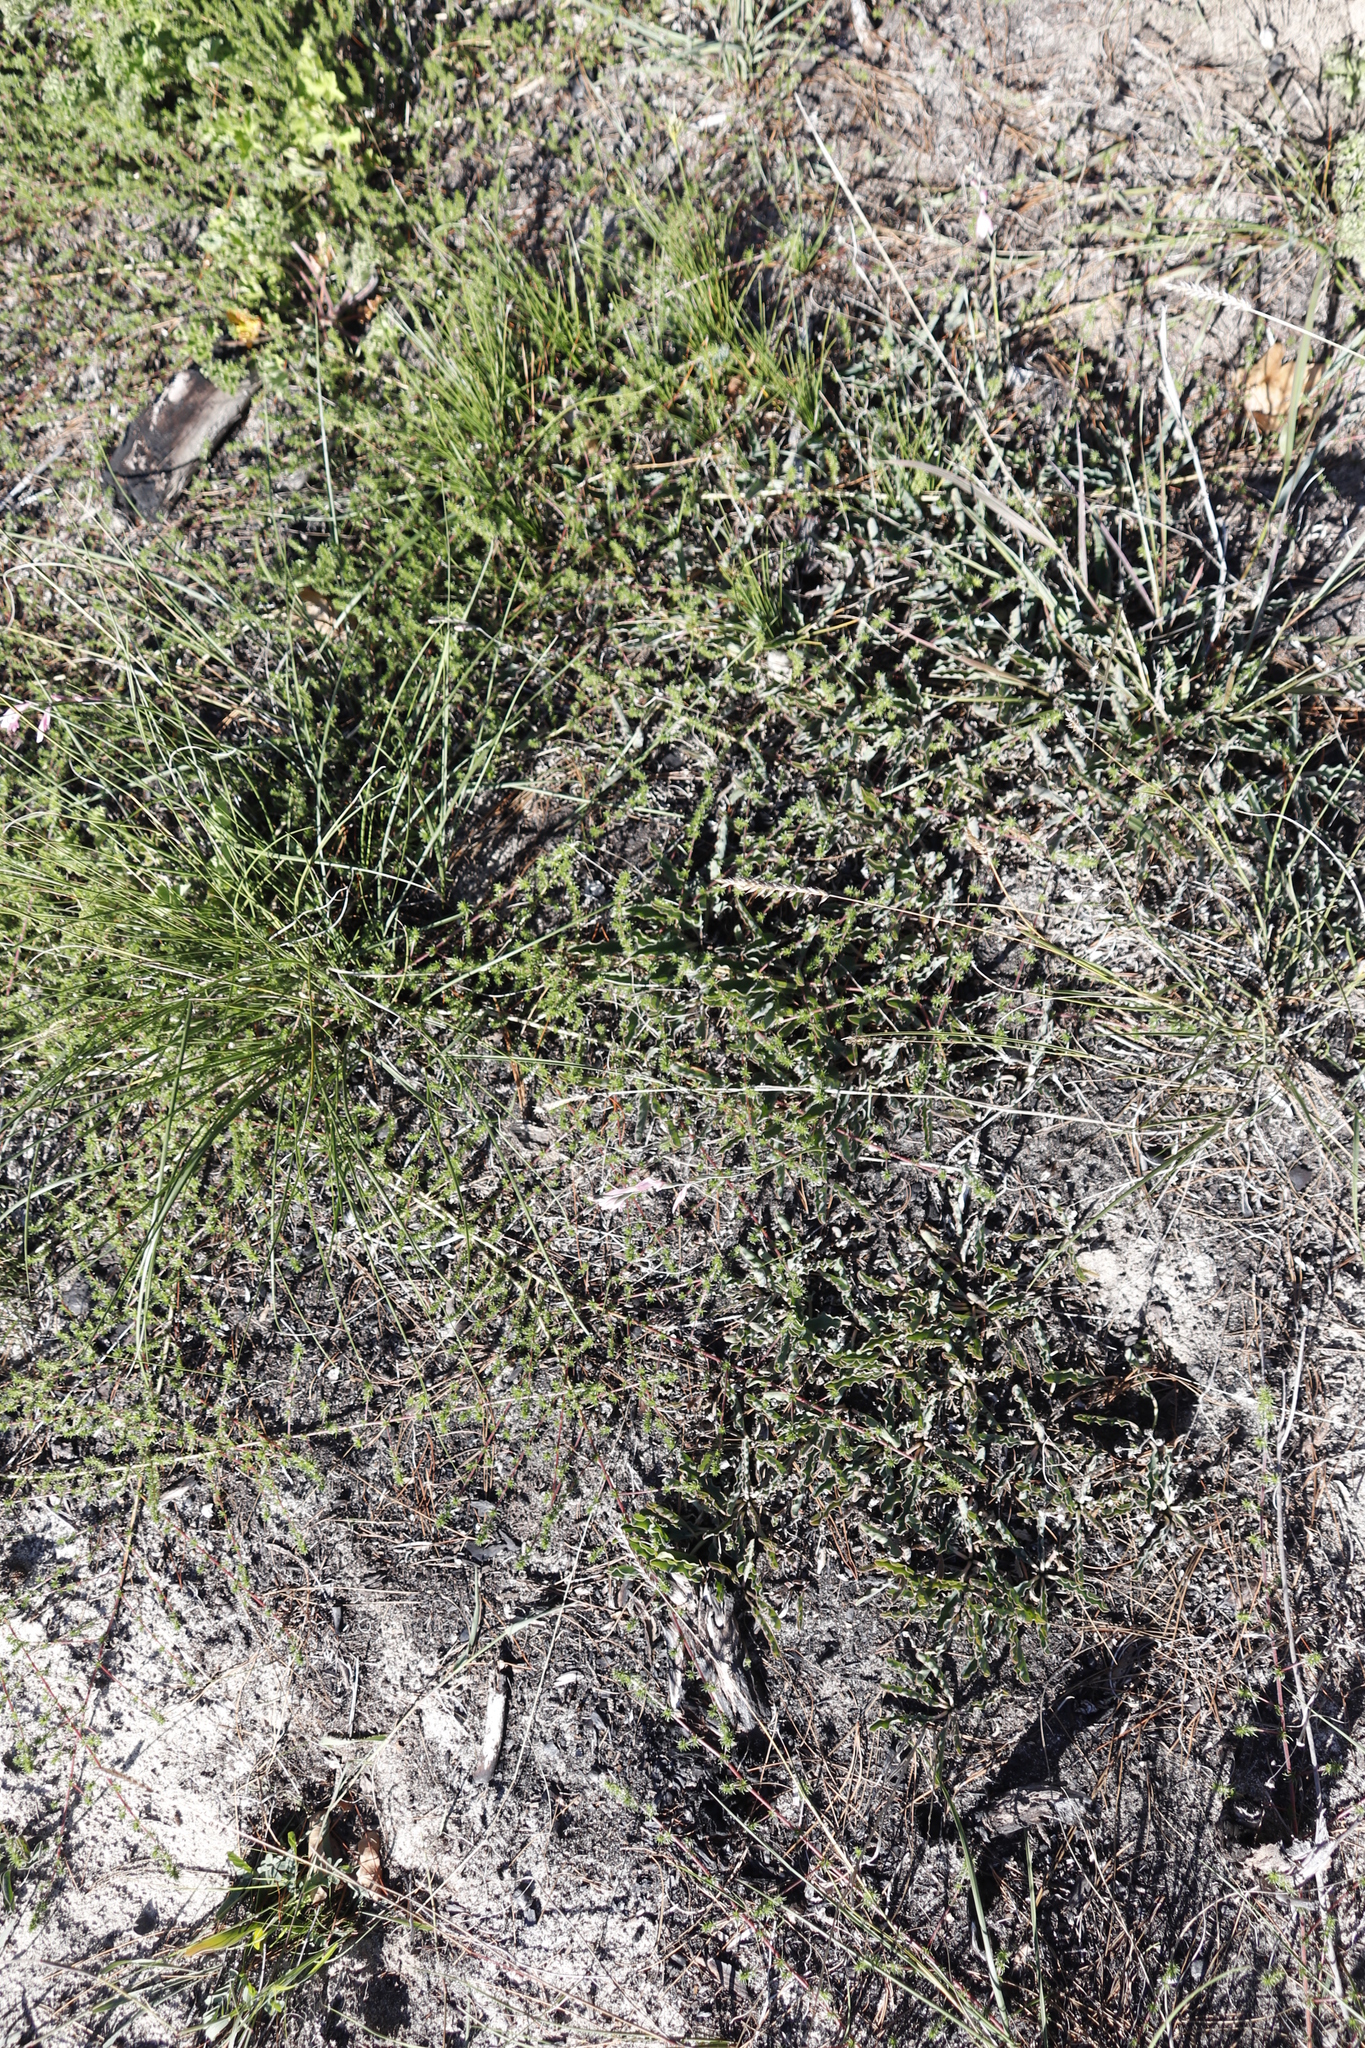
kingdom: Plantae
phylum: Tracheophyta
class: Magnoliopsida
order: Malpighiales
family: Euphorbiaceae
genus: Euphorbia
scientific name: Euphorbia tuberosa
